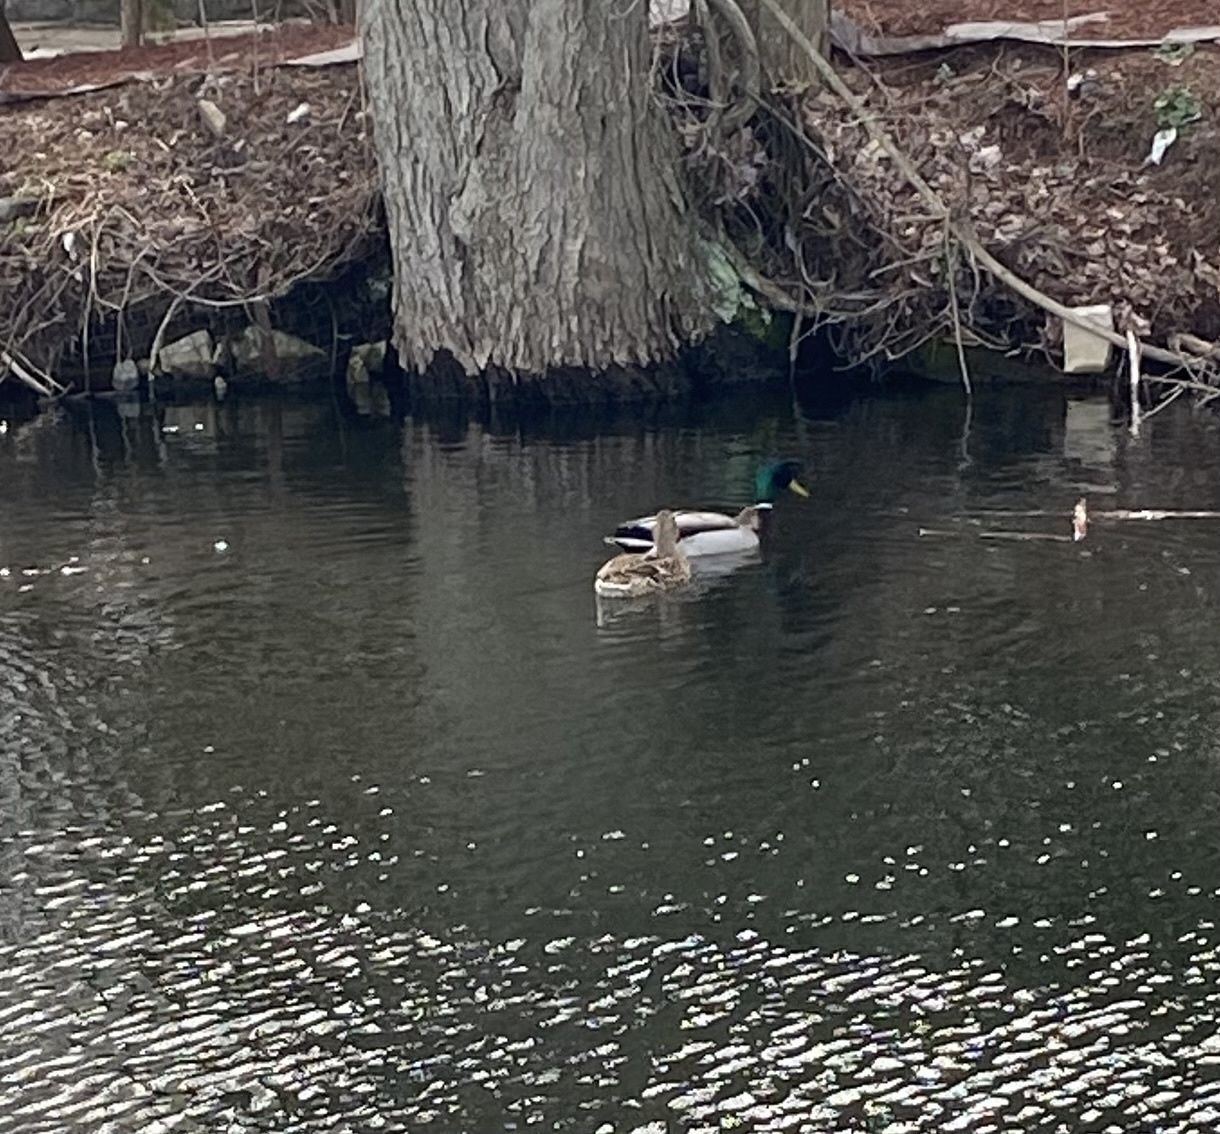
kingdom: Animalia
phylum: Chordata
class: Aves
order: Anseriformes
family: Anatidae
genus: Anas
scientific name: Anas platyrhynchos
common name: Mallard
